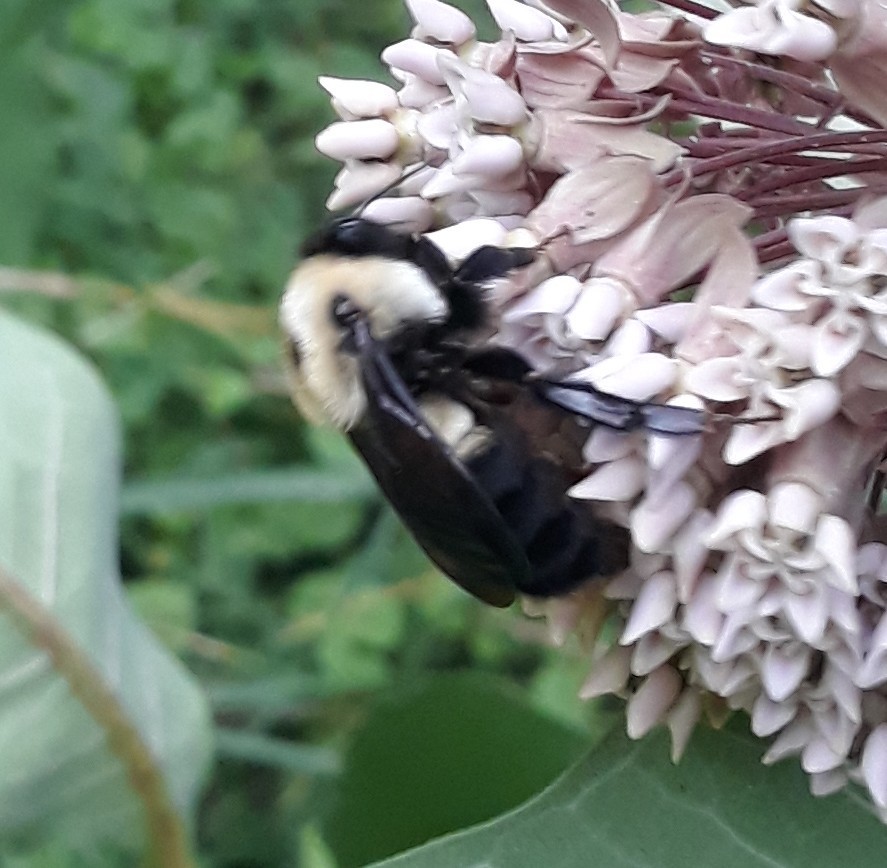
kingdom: Animalia
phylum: Arthropoda
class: Insecta
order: Hymenoptera
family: Apidae
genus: Bombus
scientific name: Bombus griseocollis
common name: Brown-belted bumble bee
